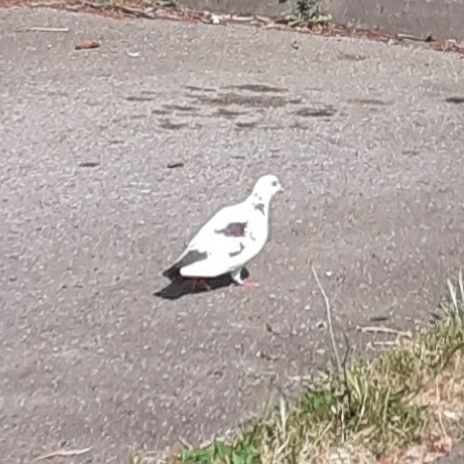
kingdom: Animalia
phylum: Chordata
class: Aves
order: Columbiformes
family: Columbidae
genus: Columba
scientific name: Columba livia
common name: Rock pigeon
